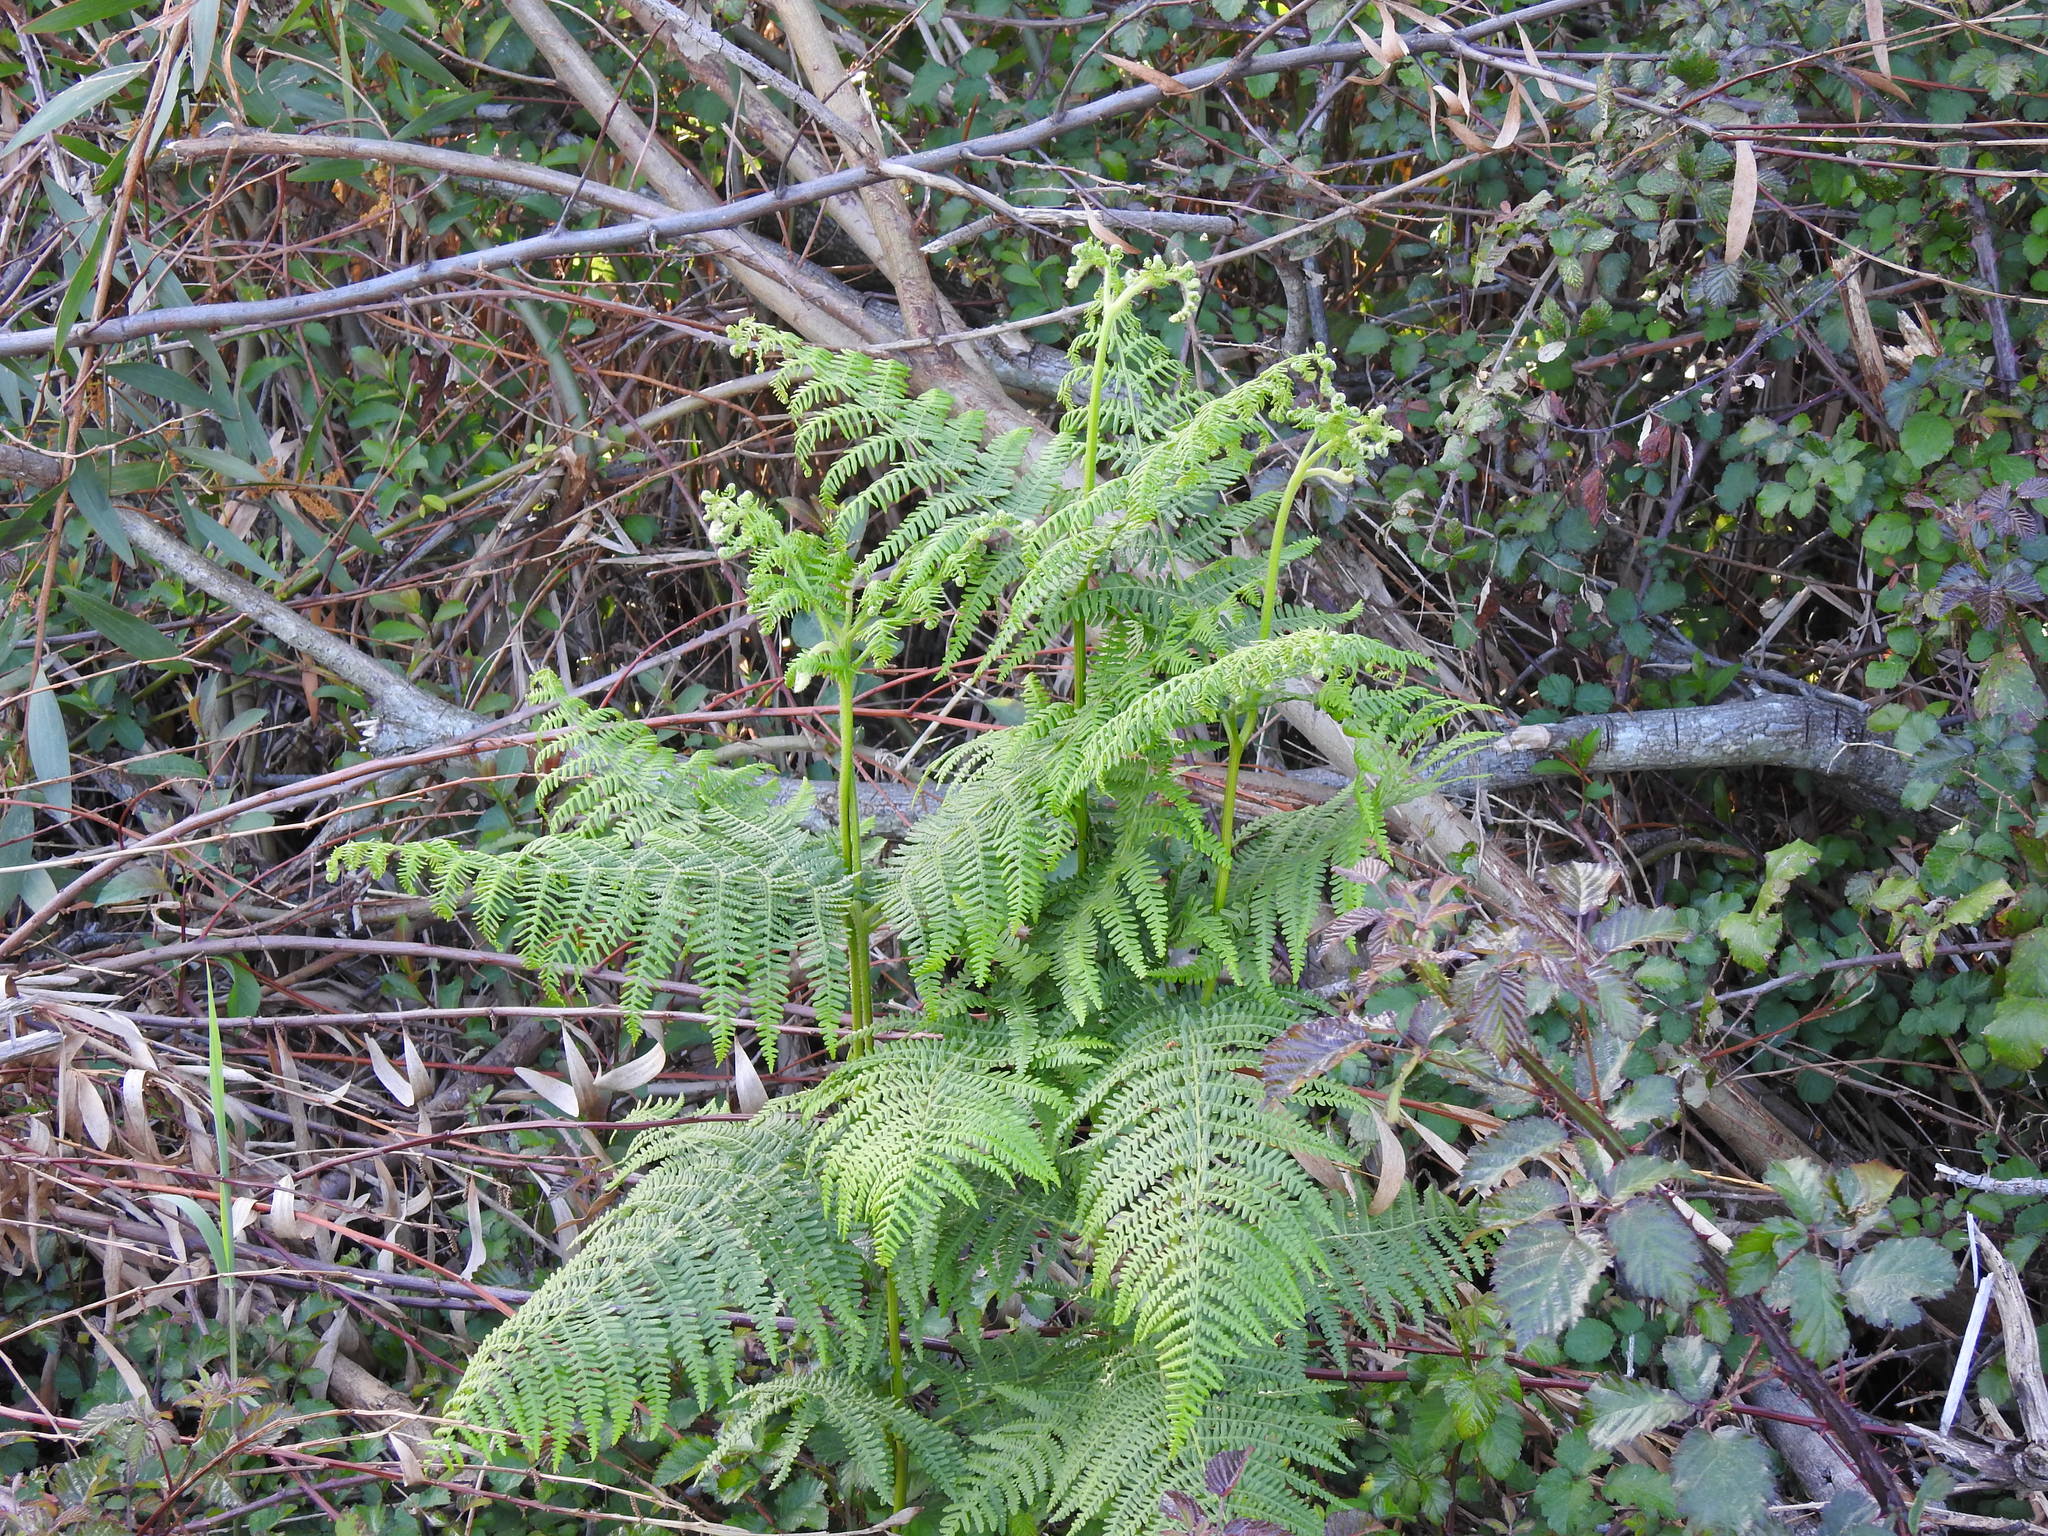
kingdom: Plantae
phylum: Tracheophyta
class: Polypodiopsida
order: Polypodiales
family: Dennstaedtiaceae
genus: Pteridium
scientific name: Pteridium aquilinum
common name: Bracken
